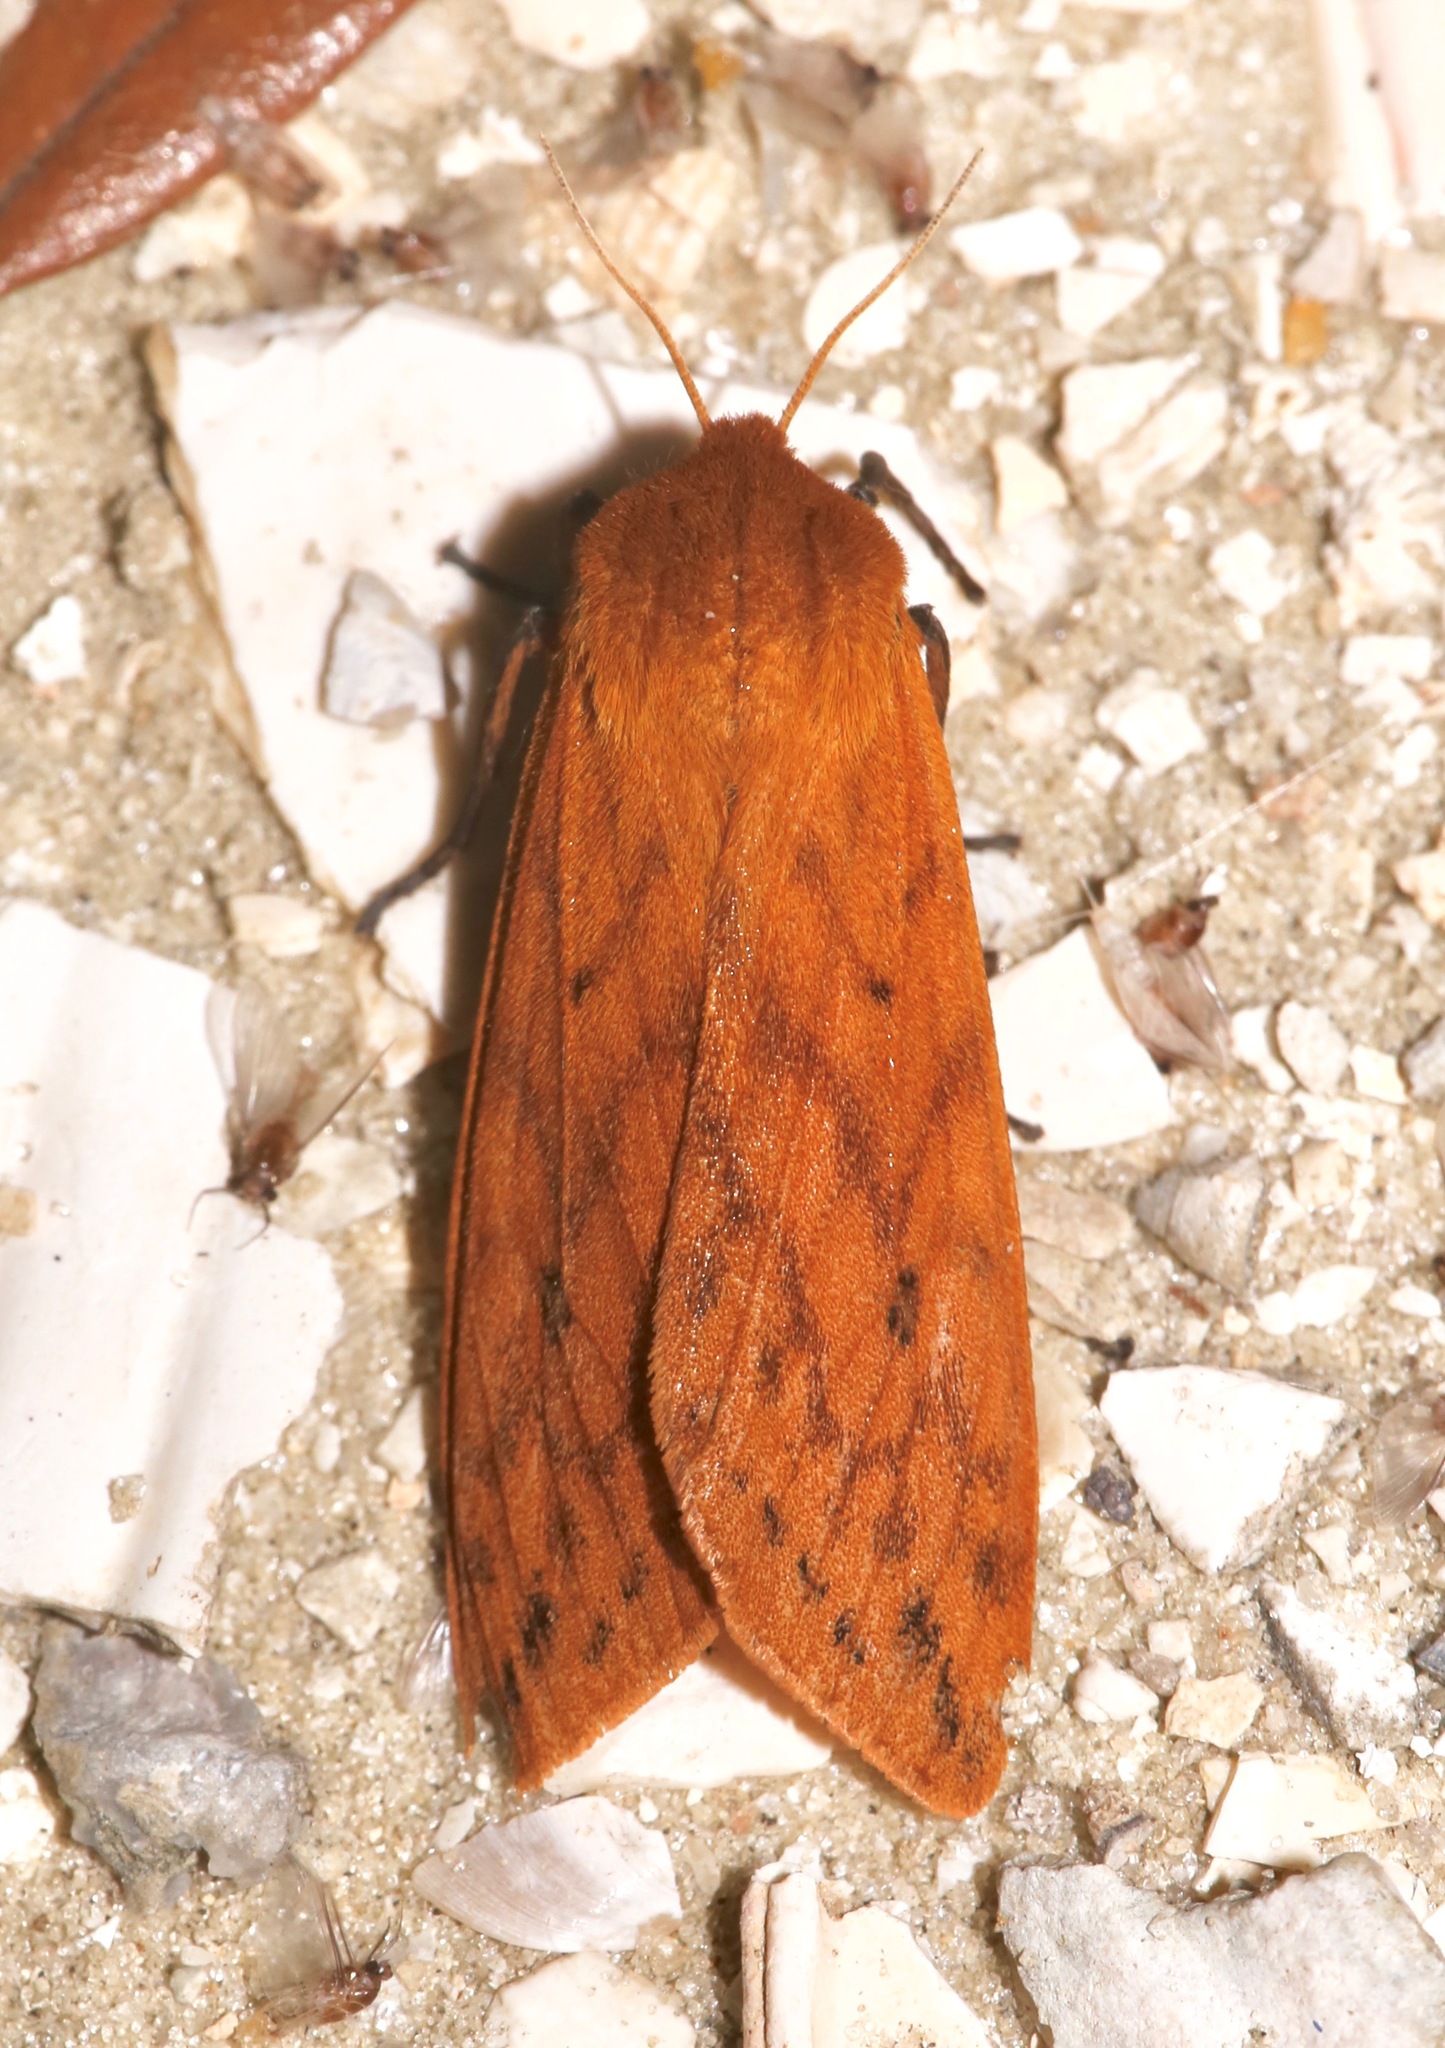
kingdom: Animalia
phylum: Arthropoda
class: Insecta
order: Lepidoptera
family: Erebidae
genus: Pyrrharctia
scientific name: Pyrrharctia isabella
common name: Isabella tiger moth
